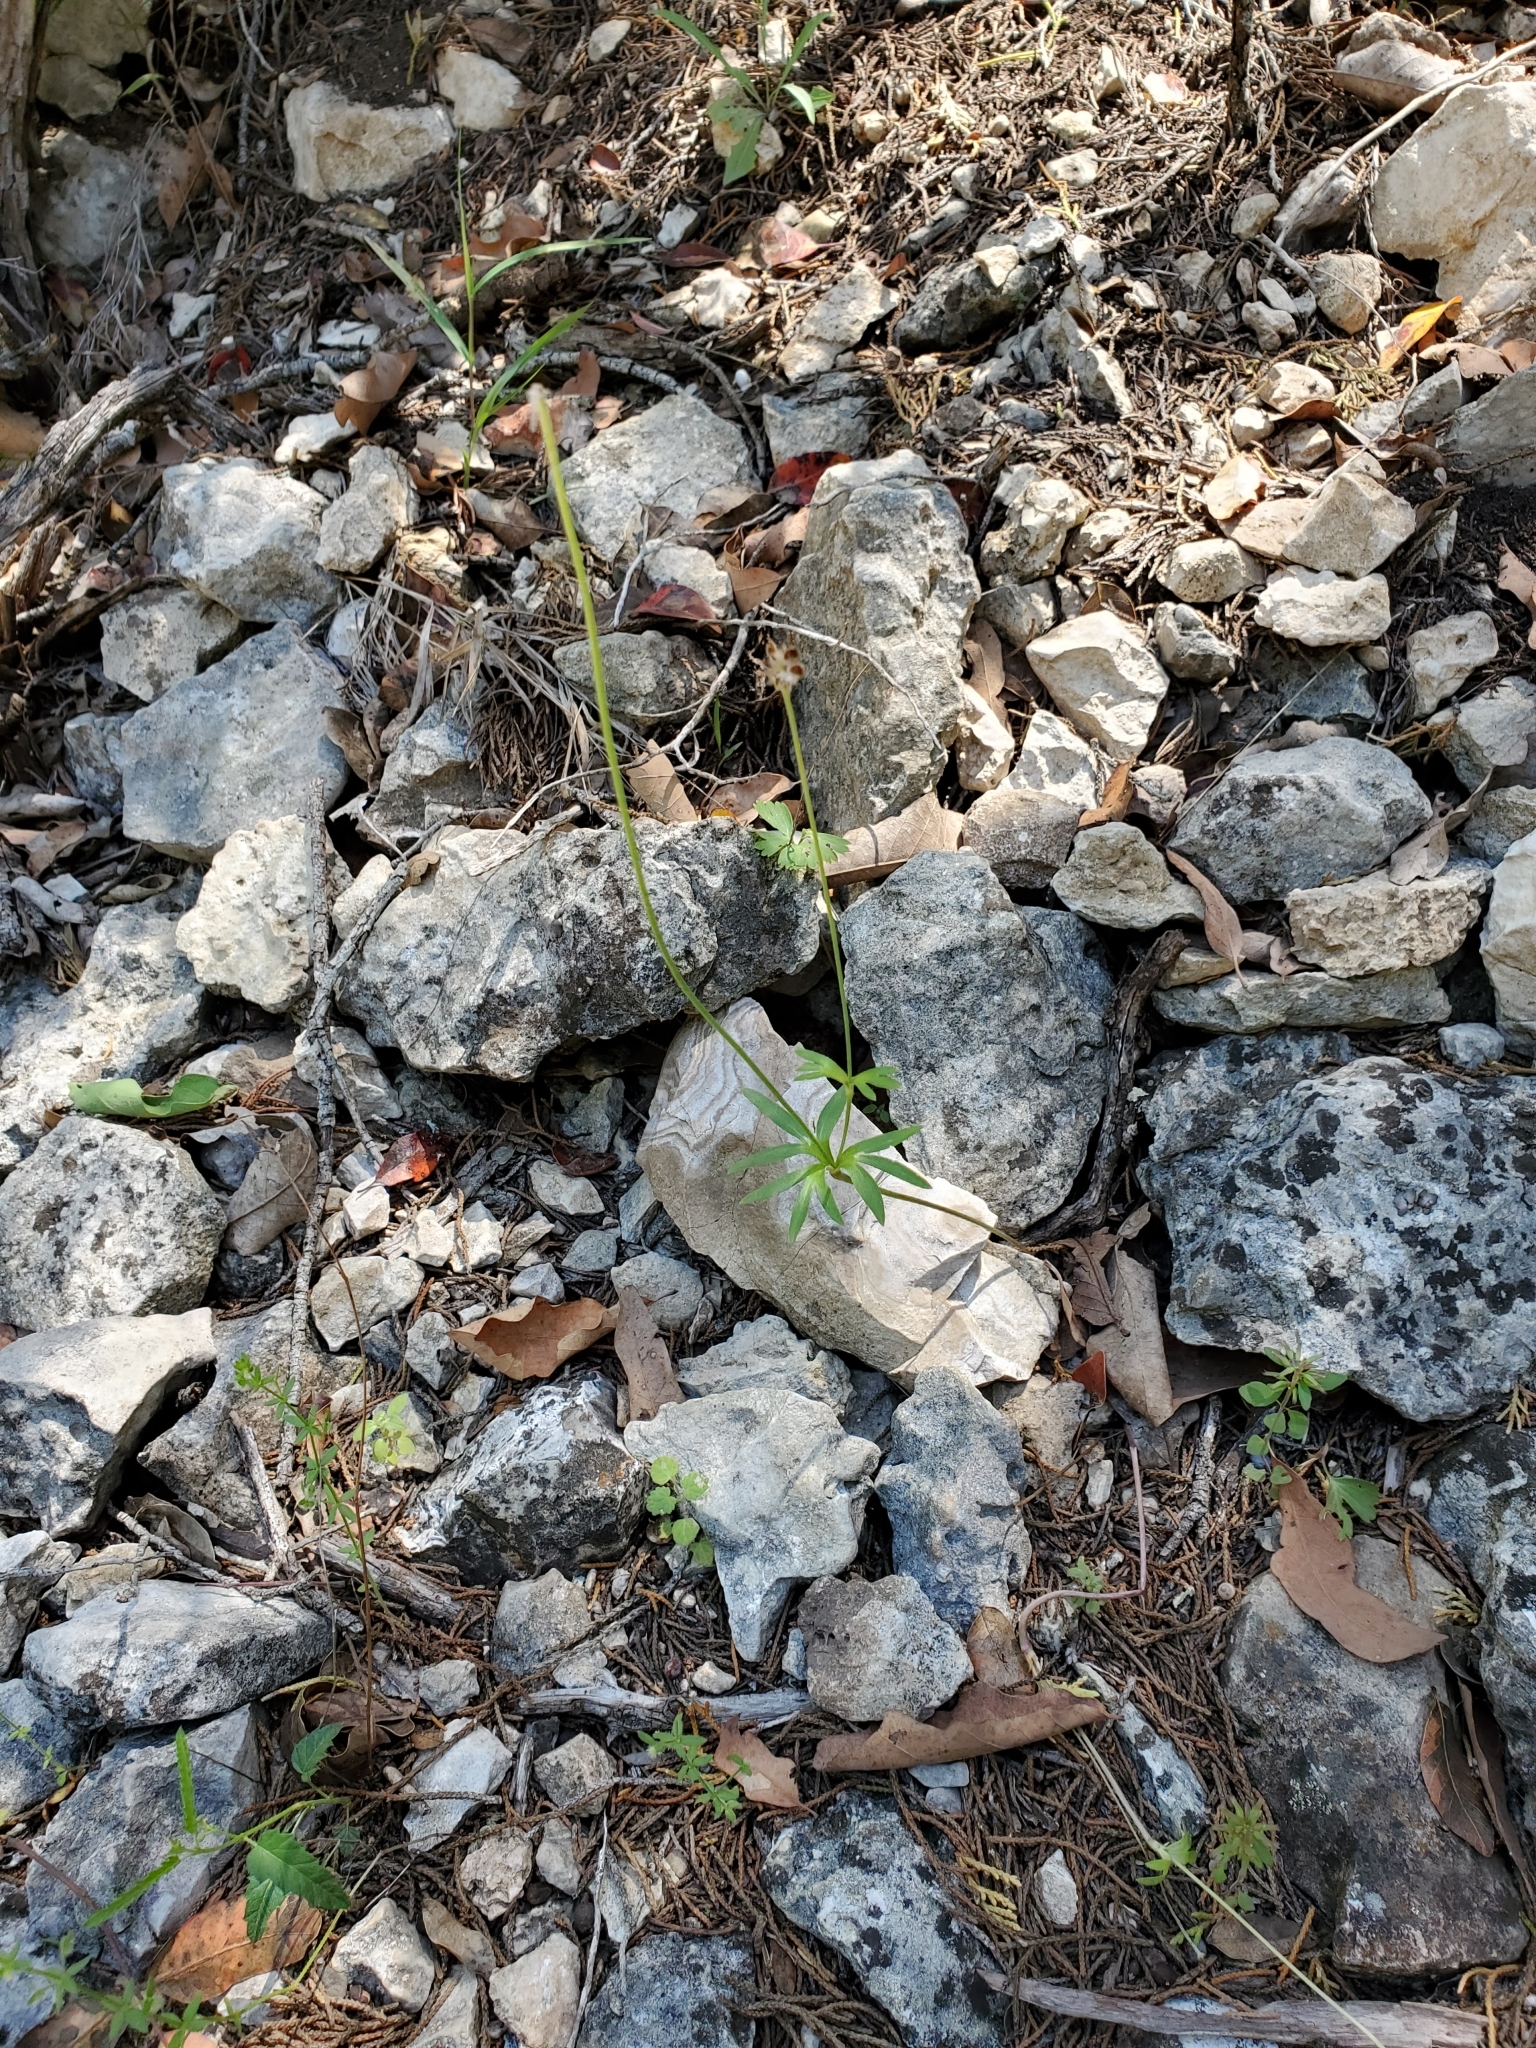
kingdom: Plantae
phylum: Tracheophyta
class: Magnoliopsida
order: Ranunculales
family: Ranunculaceae
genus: Anemone
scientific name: Anemone edwardsiana
